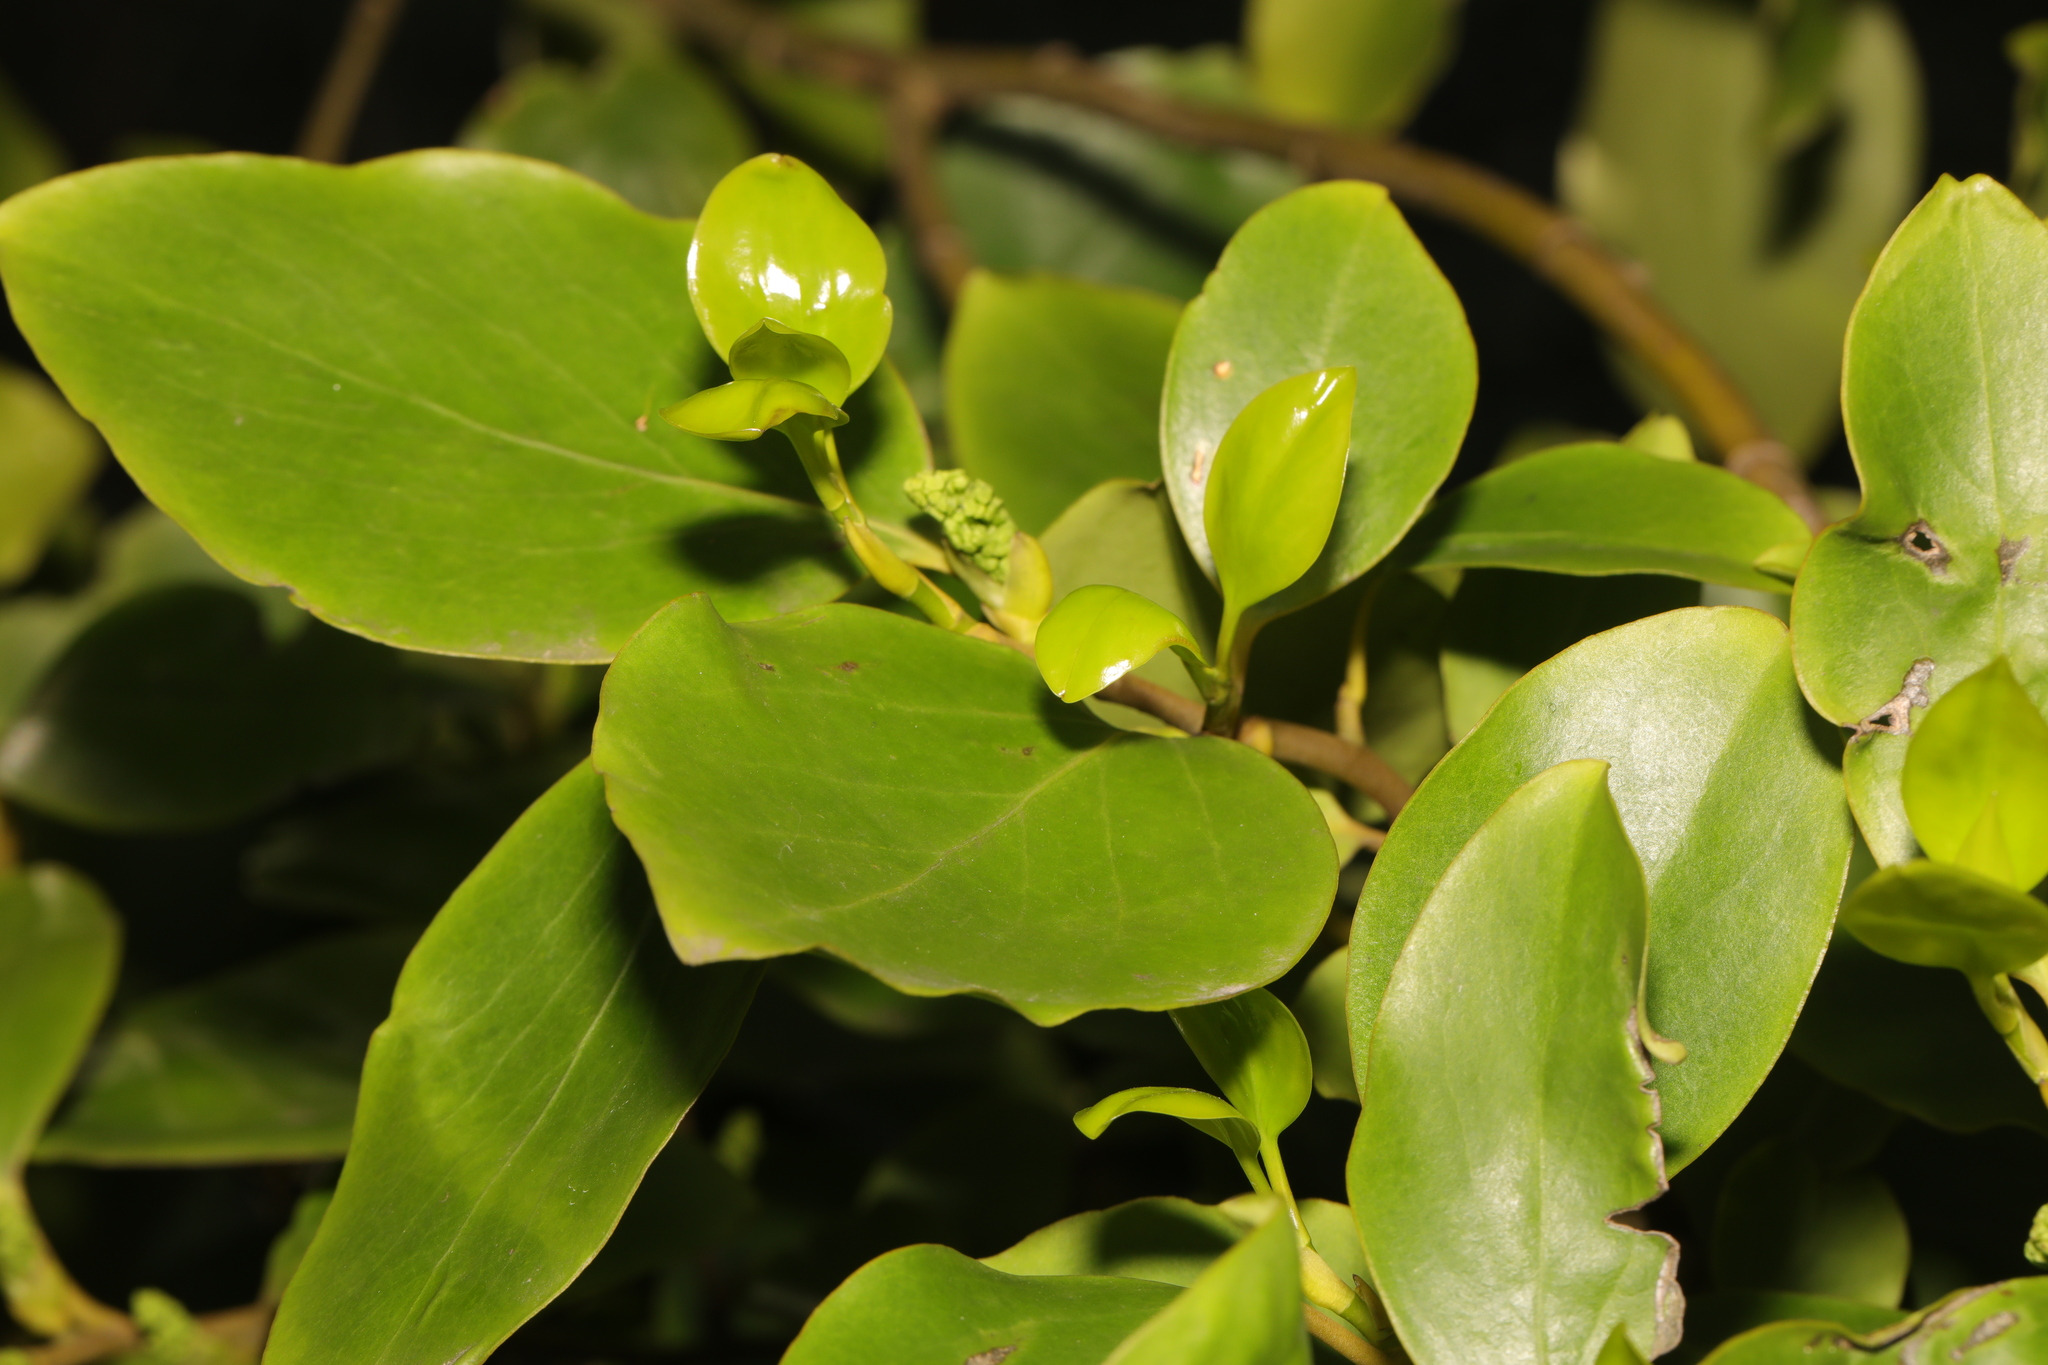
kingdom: Plantae
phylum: Tracheophyta
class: Magnoliopsida
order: Apiales
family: Griseliniaceae
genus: Griselinia
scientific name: Griselinia littoralis
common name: New zealand broadleaf
